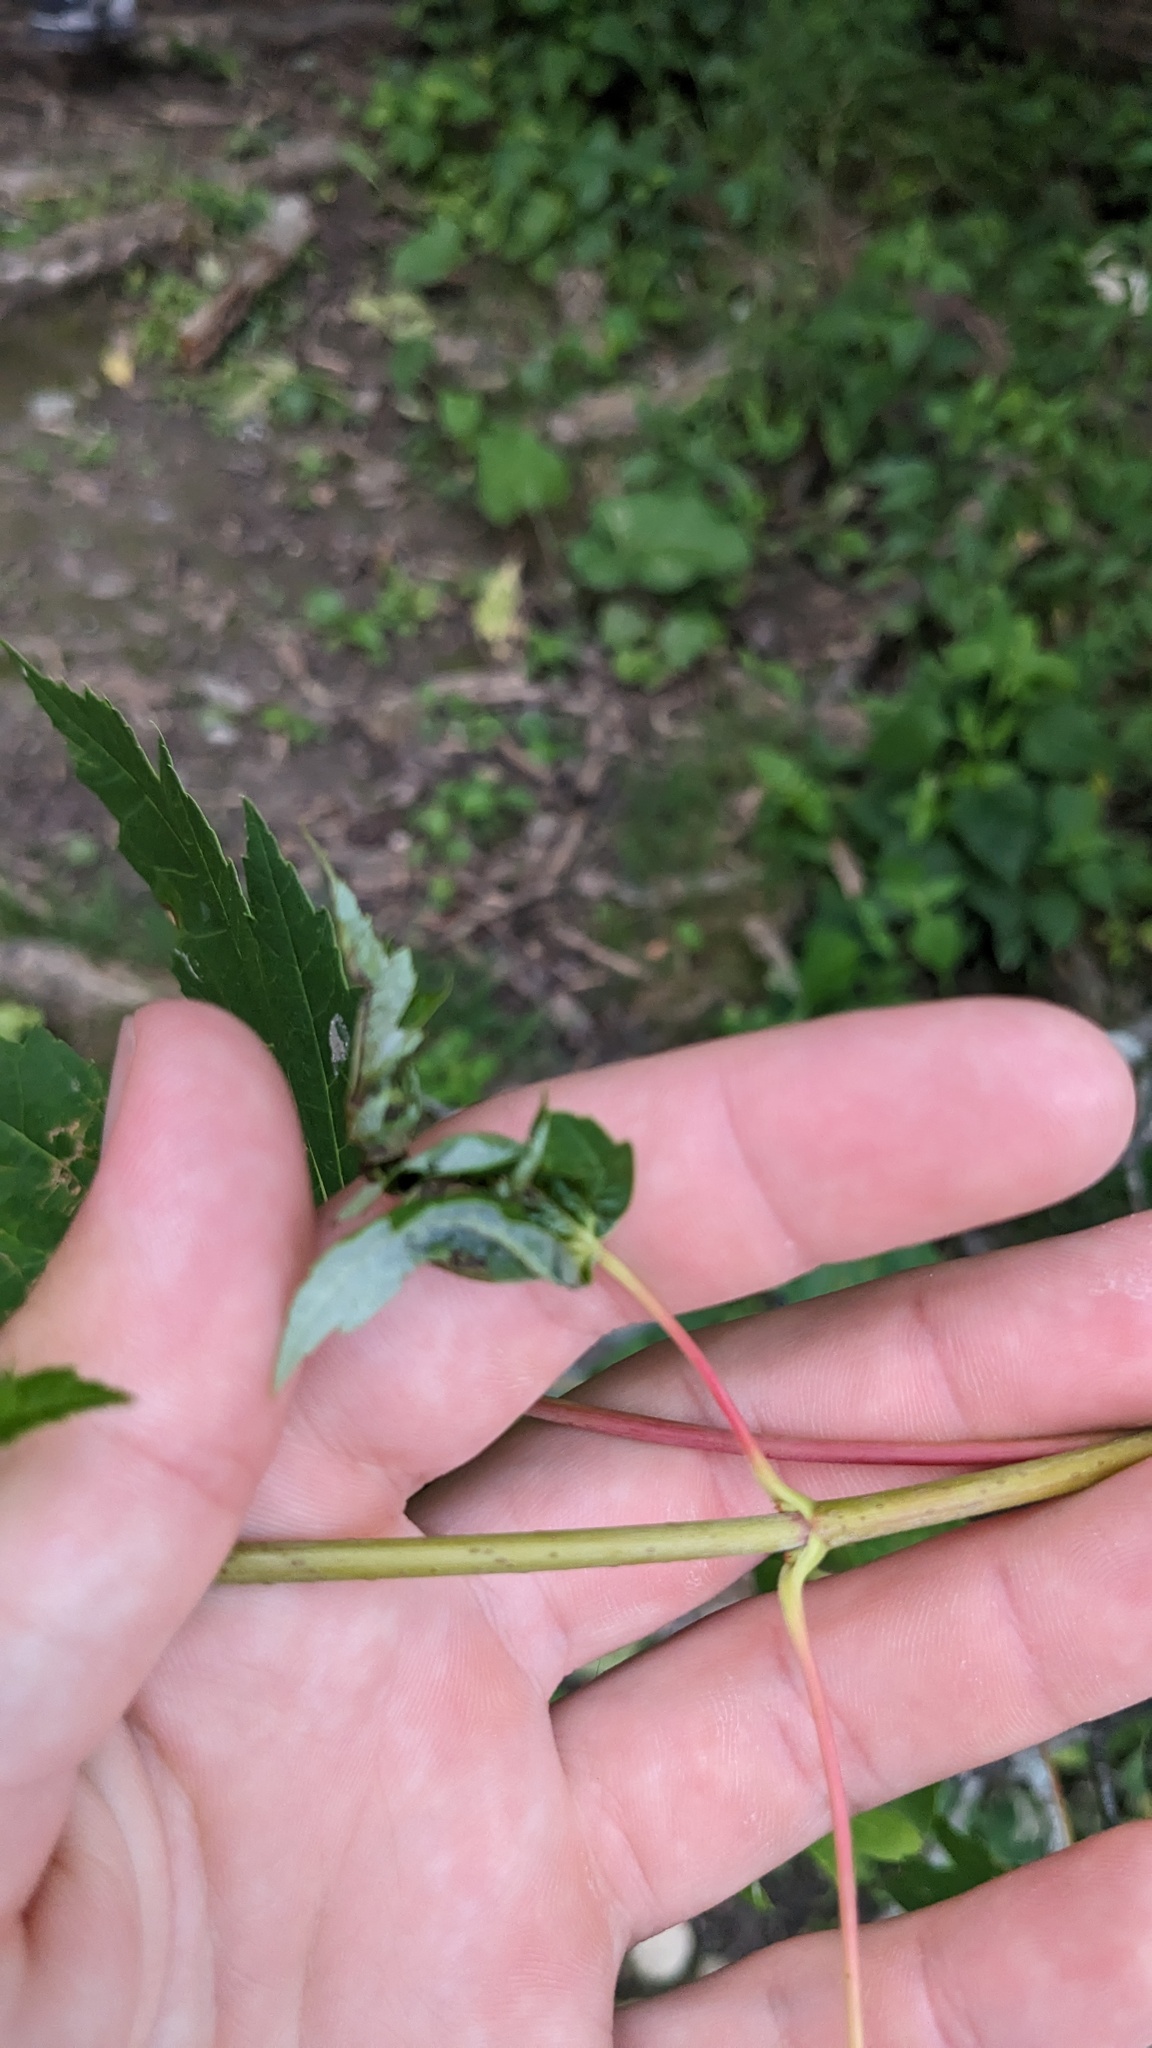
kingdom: Animalia
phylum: Arthropoda
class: Insecta
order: Diptera
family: Cecidomyiidae
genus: Dasineura
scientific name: Dasineura aceris
